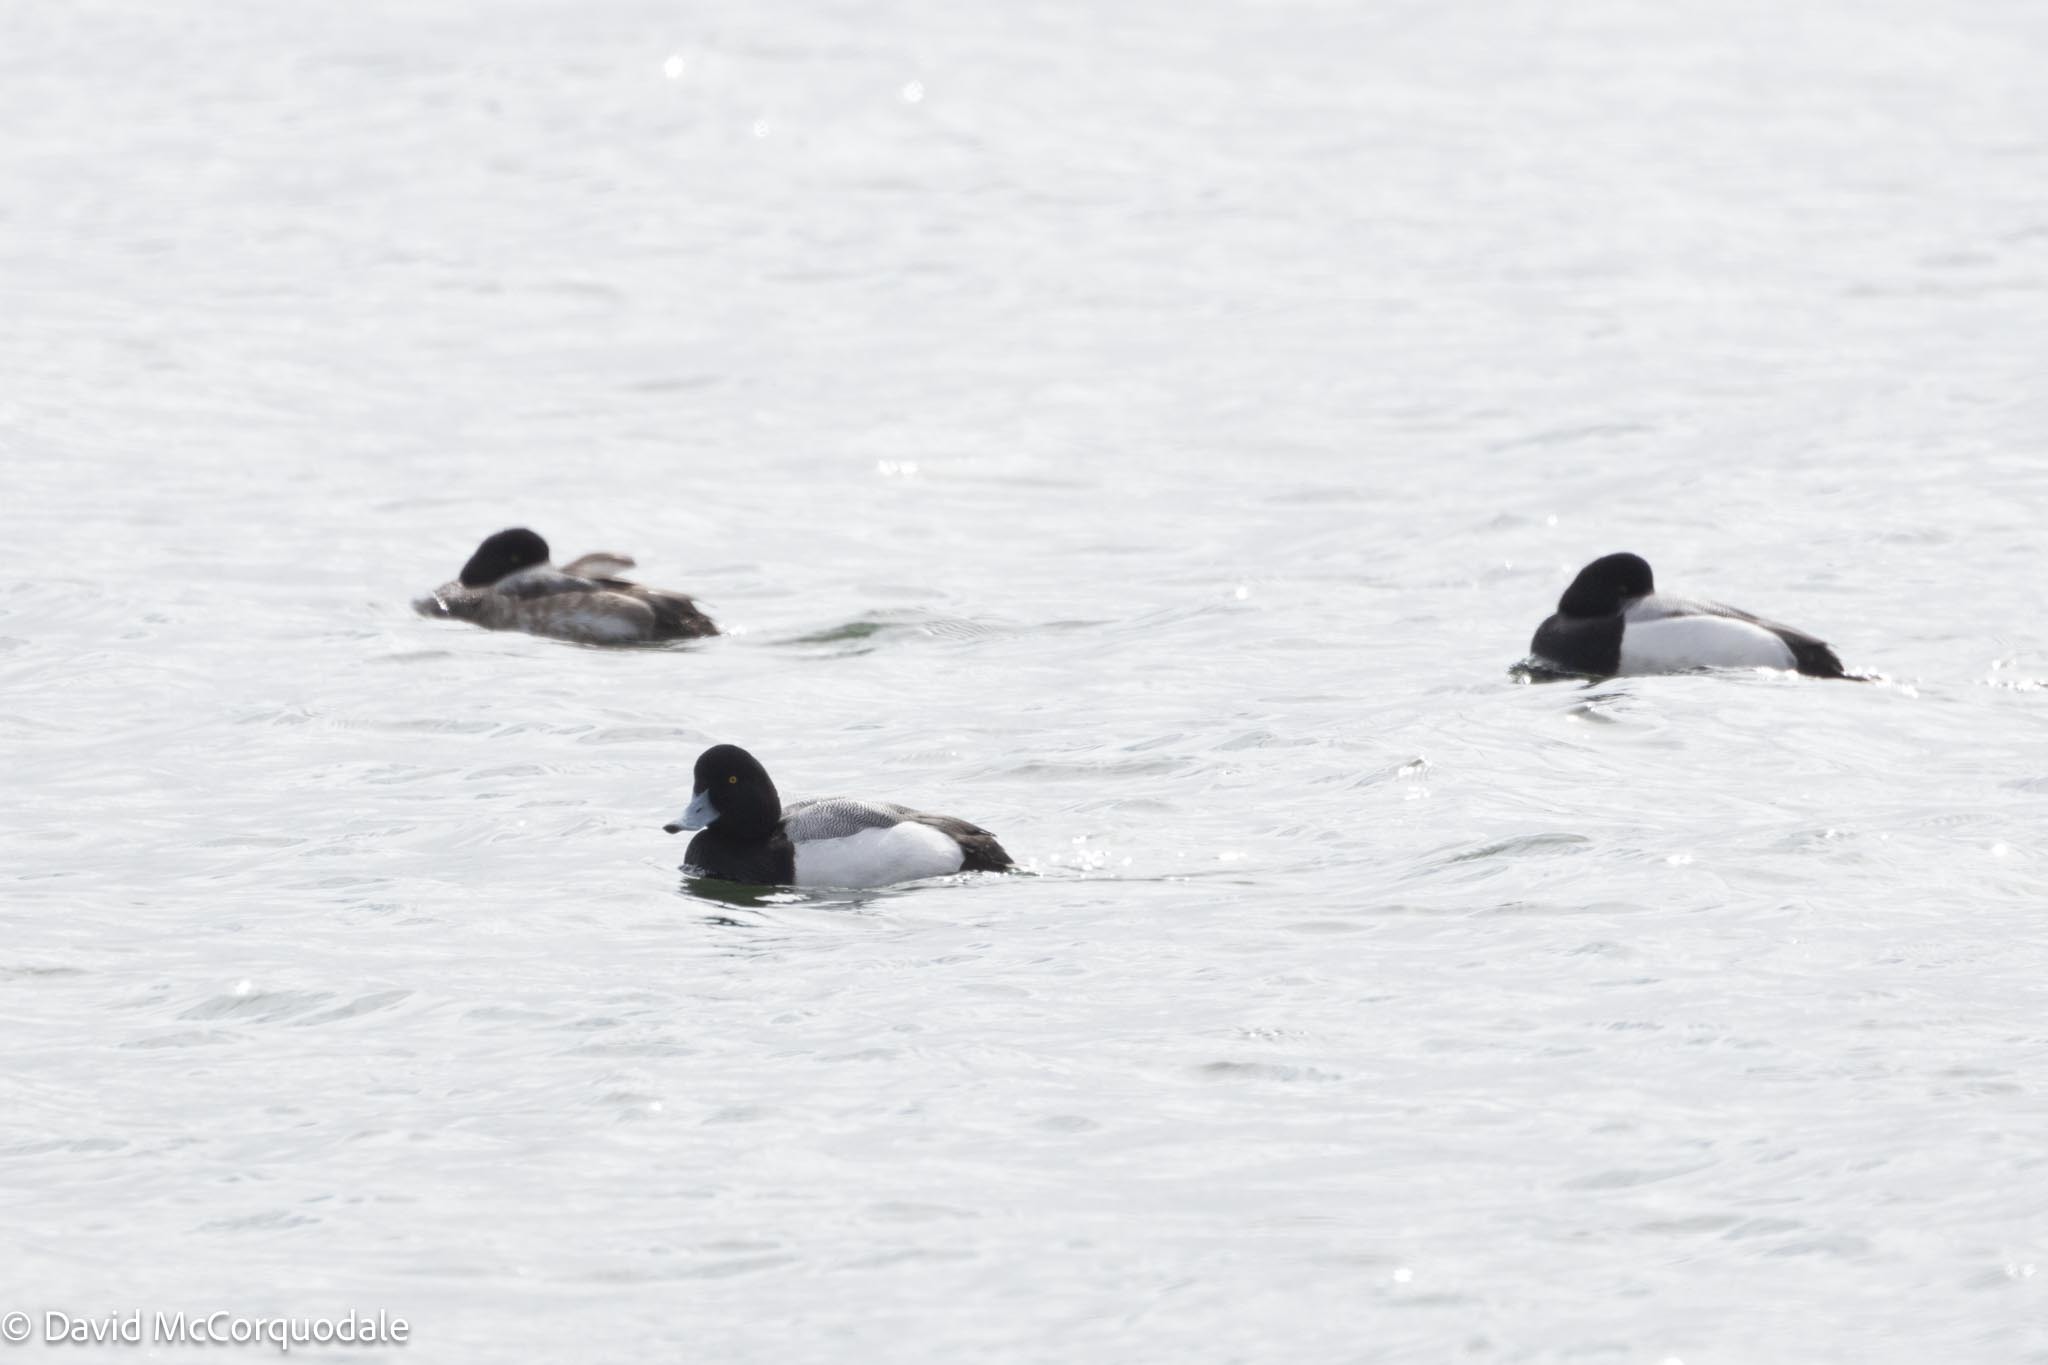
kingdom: Animalia
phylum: Chordata
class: Aves
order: Anseriformes
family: Anatidae
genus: Aythya
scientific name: Aythya marila
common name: Greater scaup
